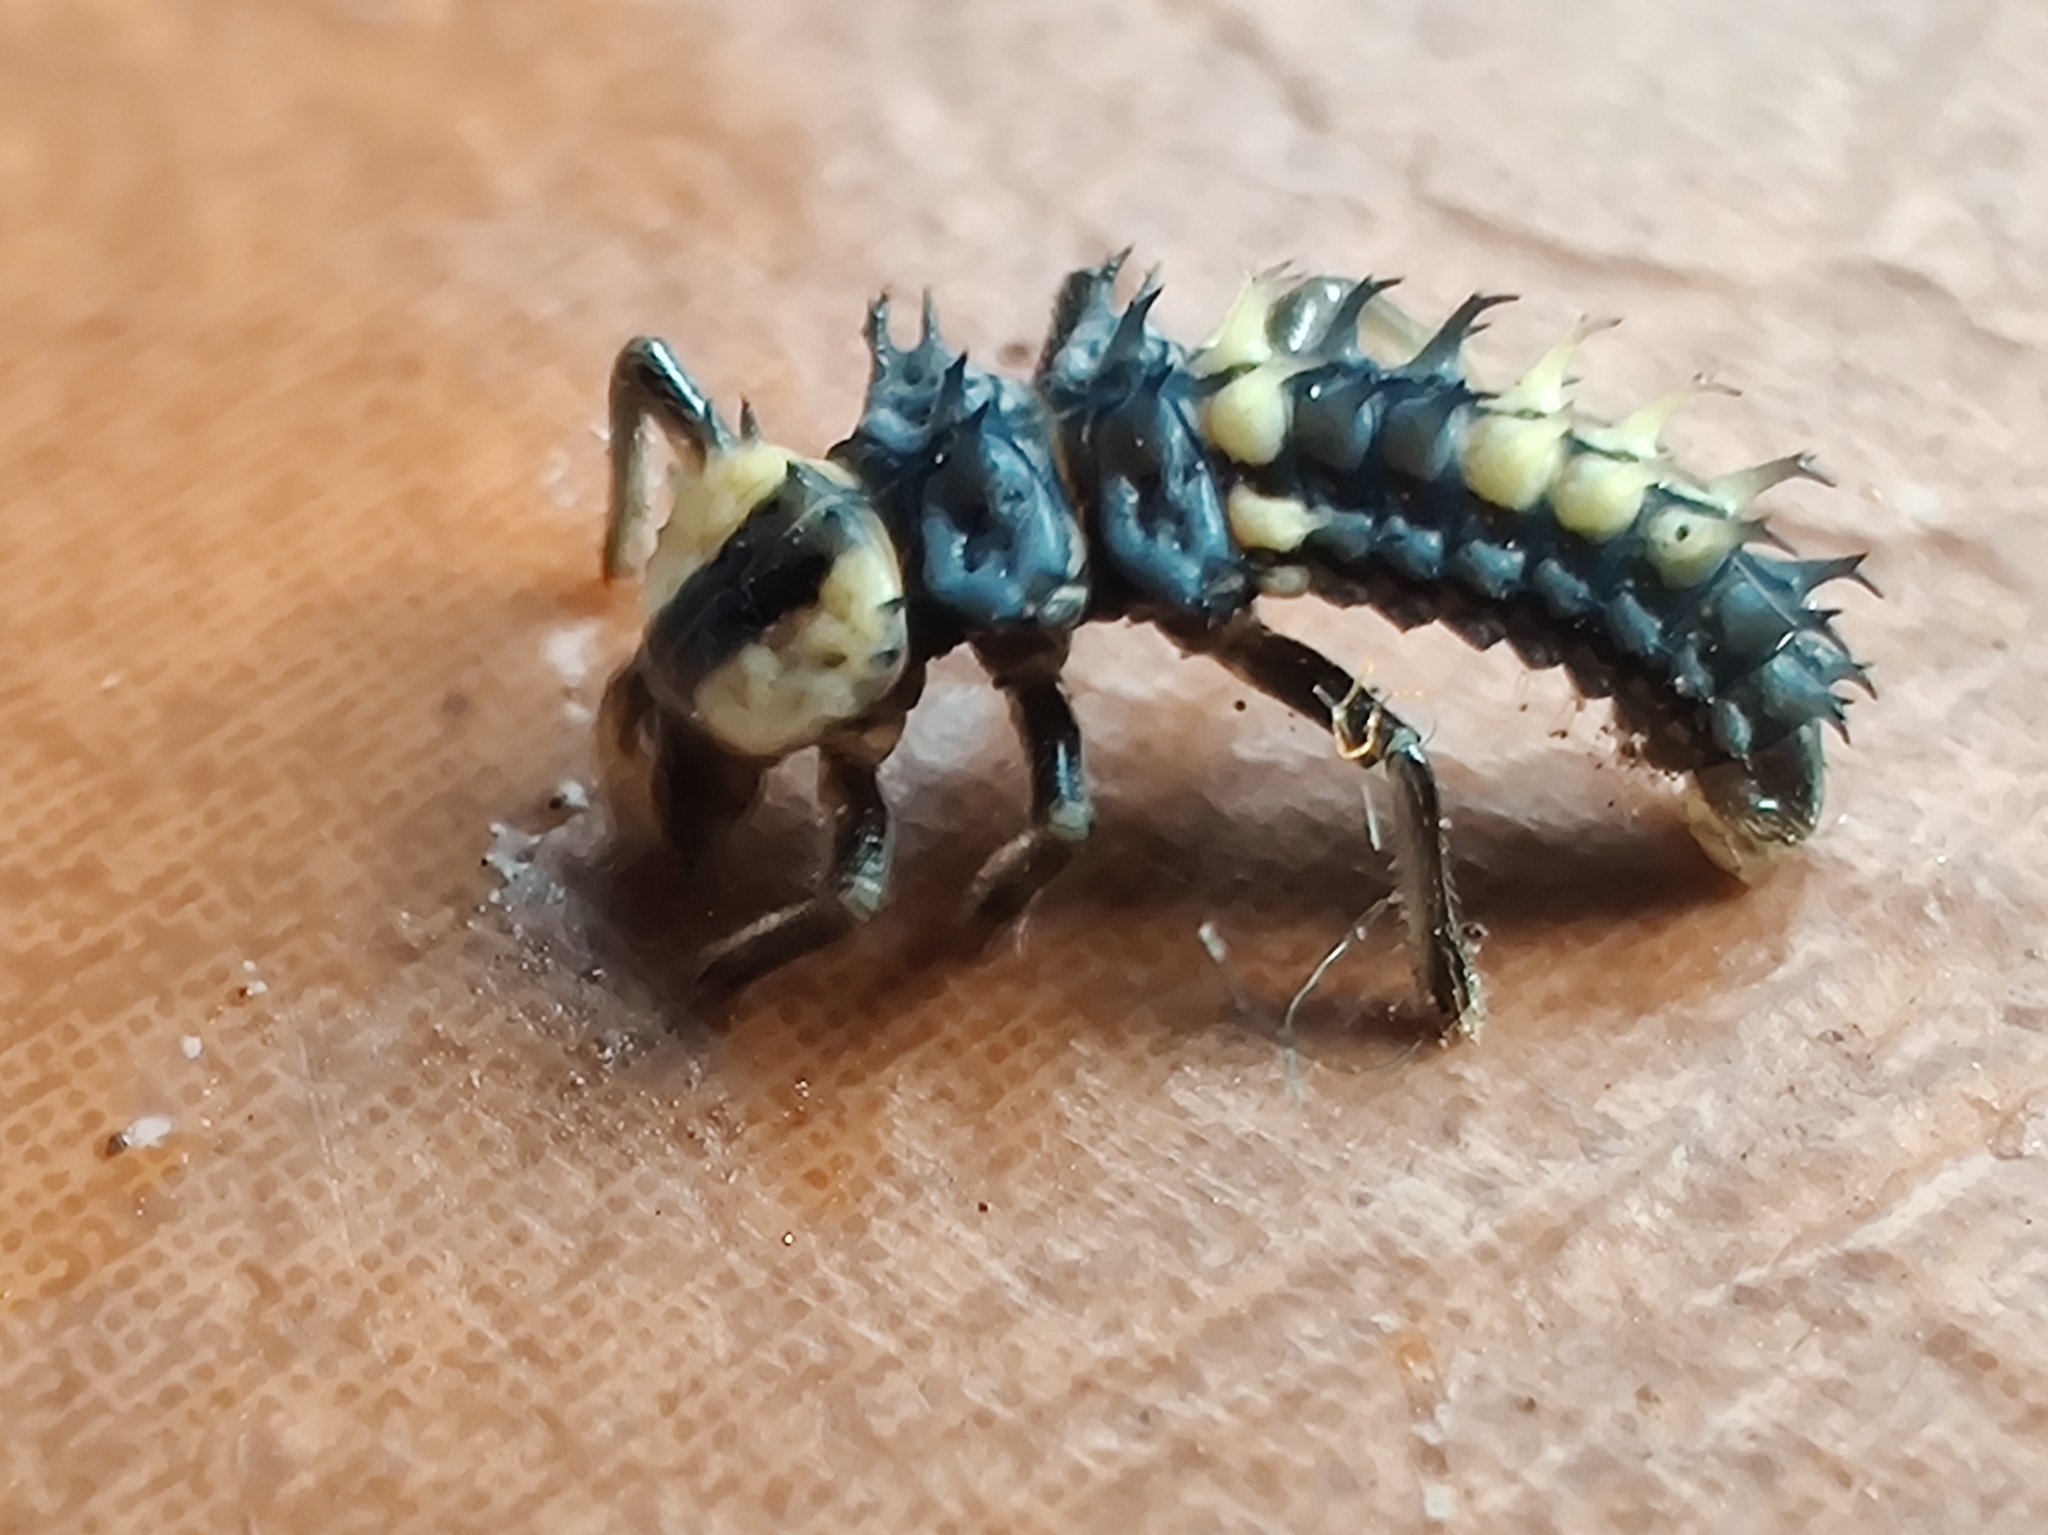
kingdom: Animalia
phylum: Arthropoda
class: Insecta
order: Coleoptera
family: Coccinellidae
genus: Harmonia
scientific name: Harmonia
